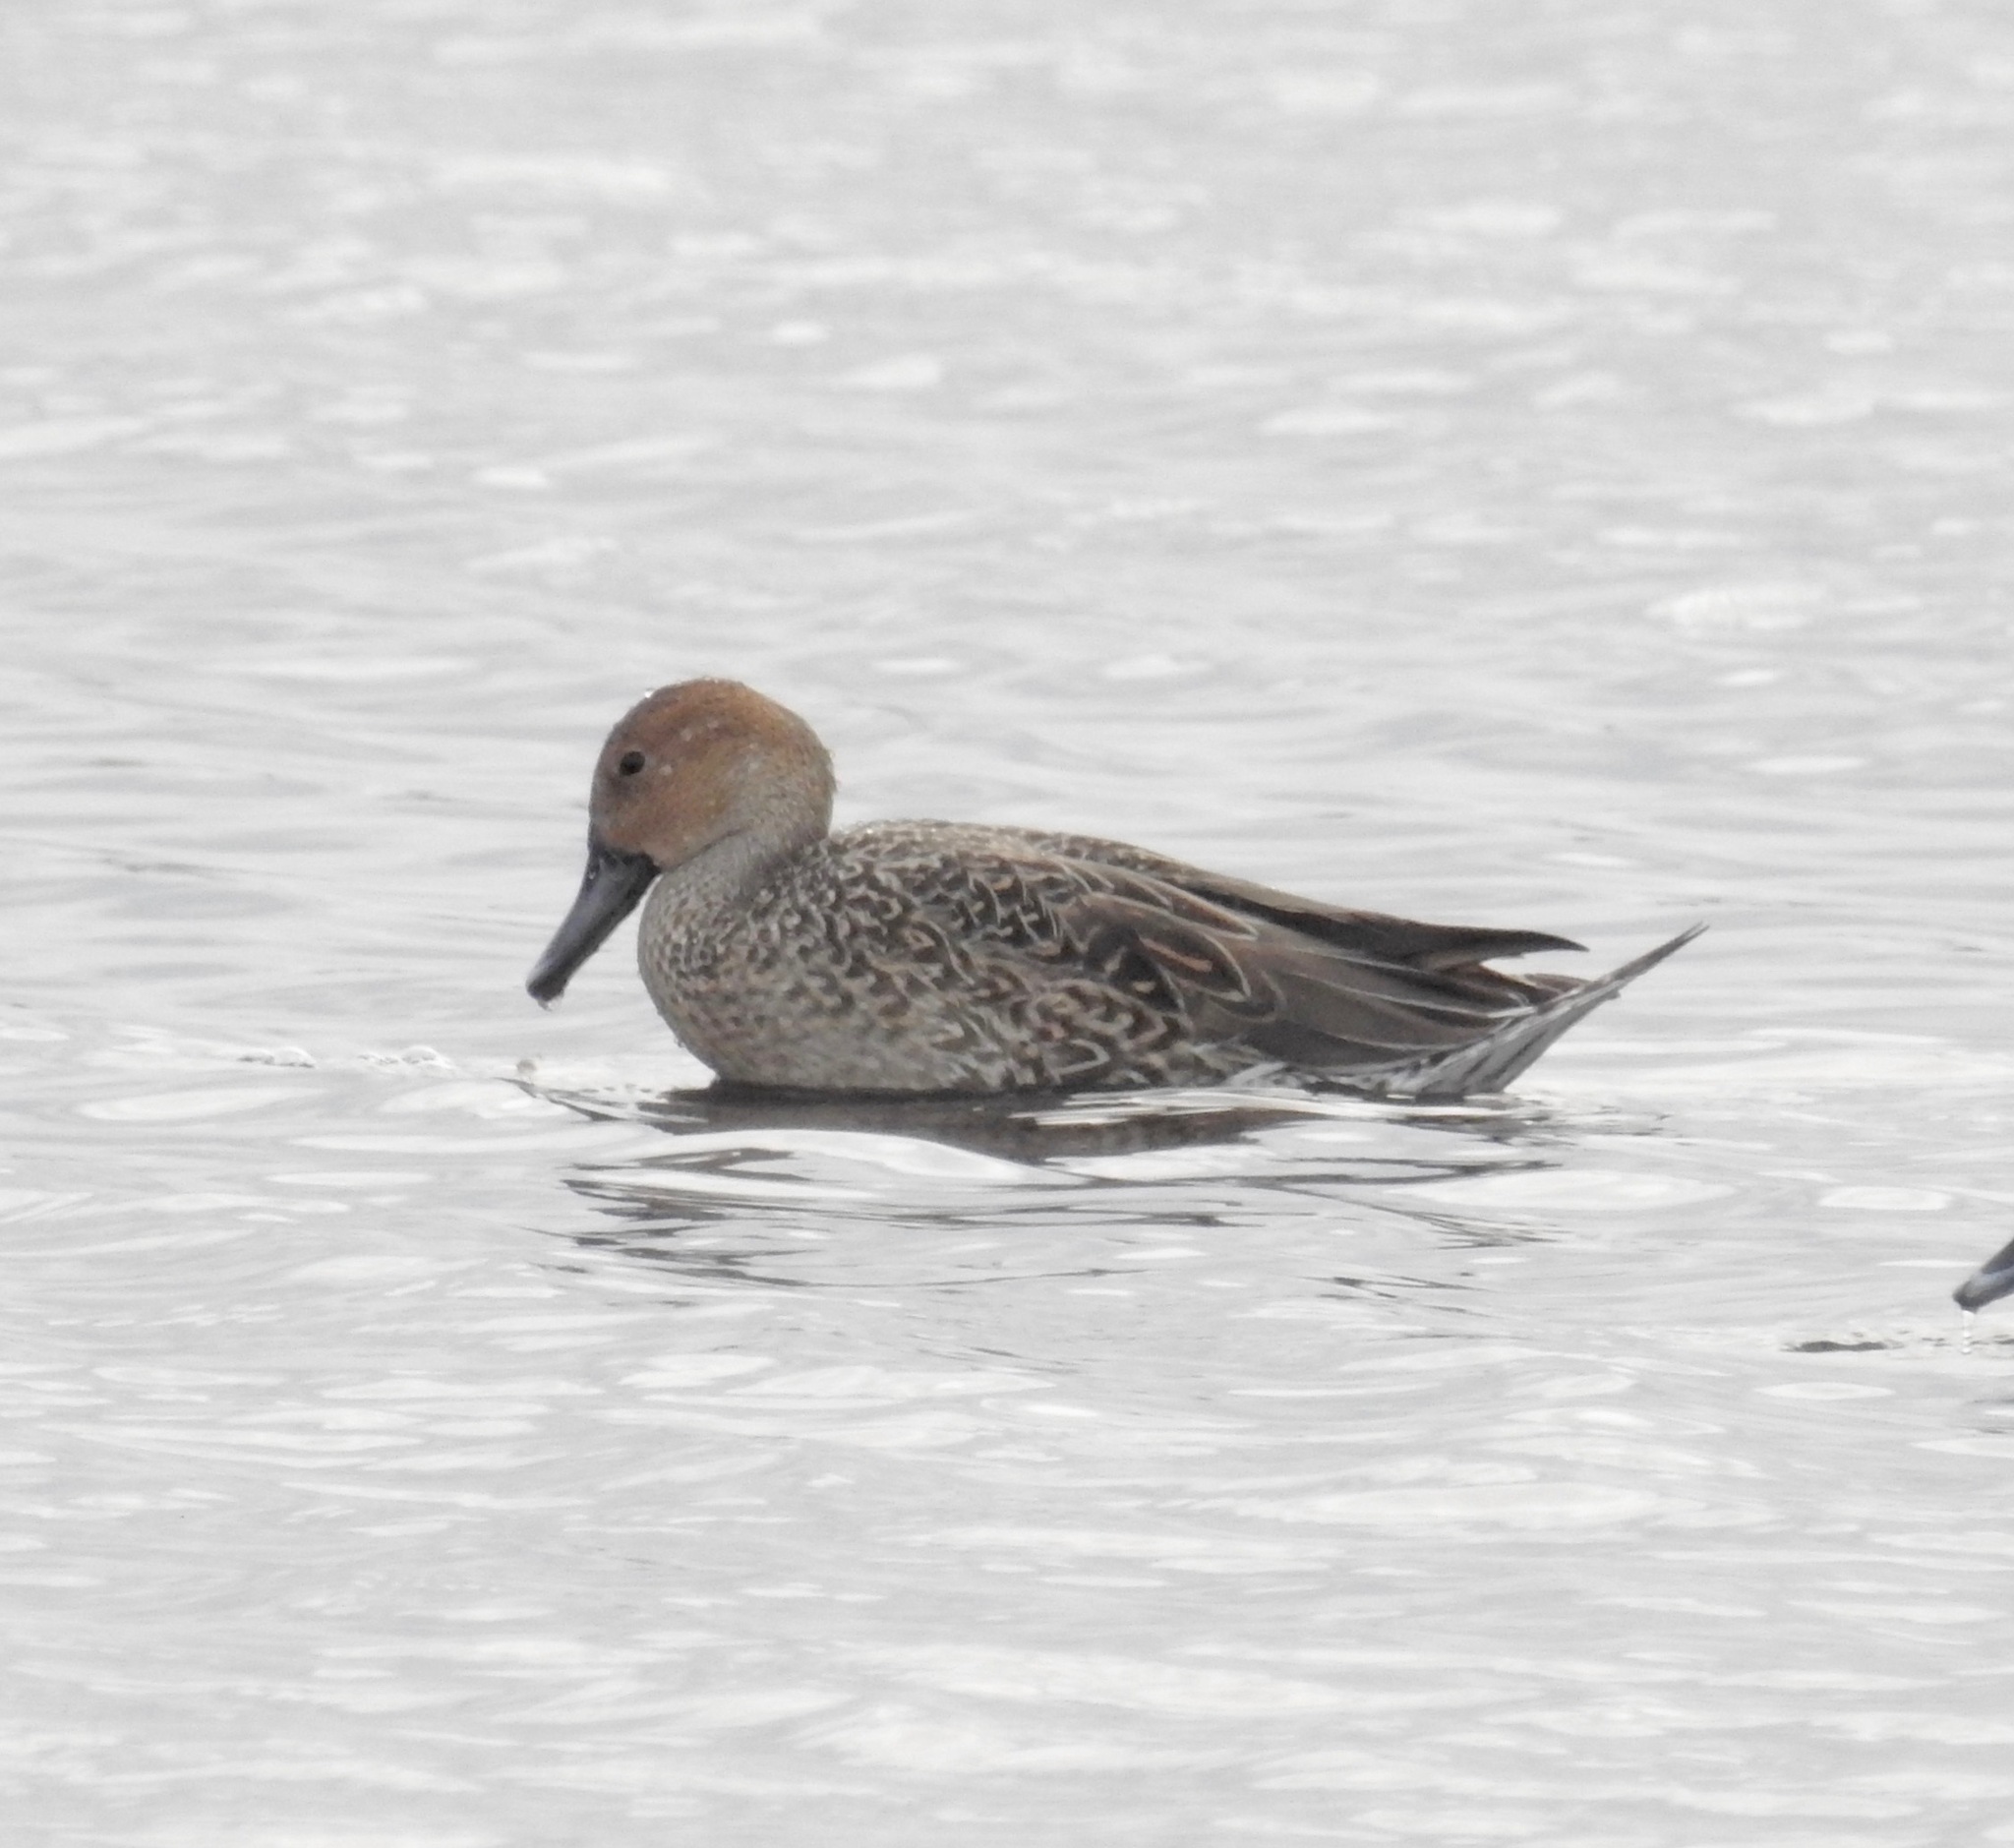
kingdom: Animalia
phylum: Chordata
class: Aves
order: Anseriformes
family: Anatidae
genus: Anas
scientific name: Anas acuta
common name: Northern pintail
